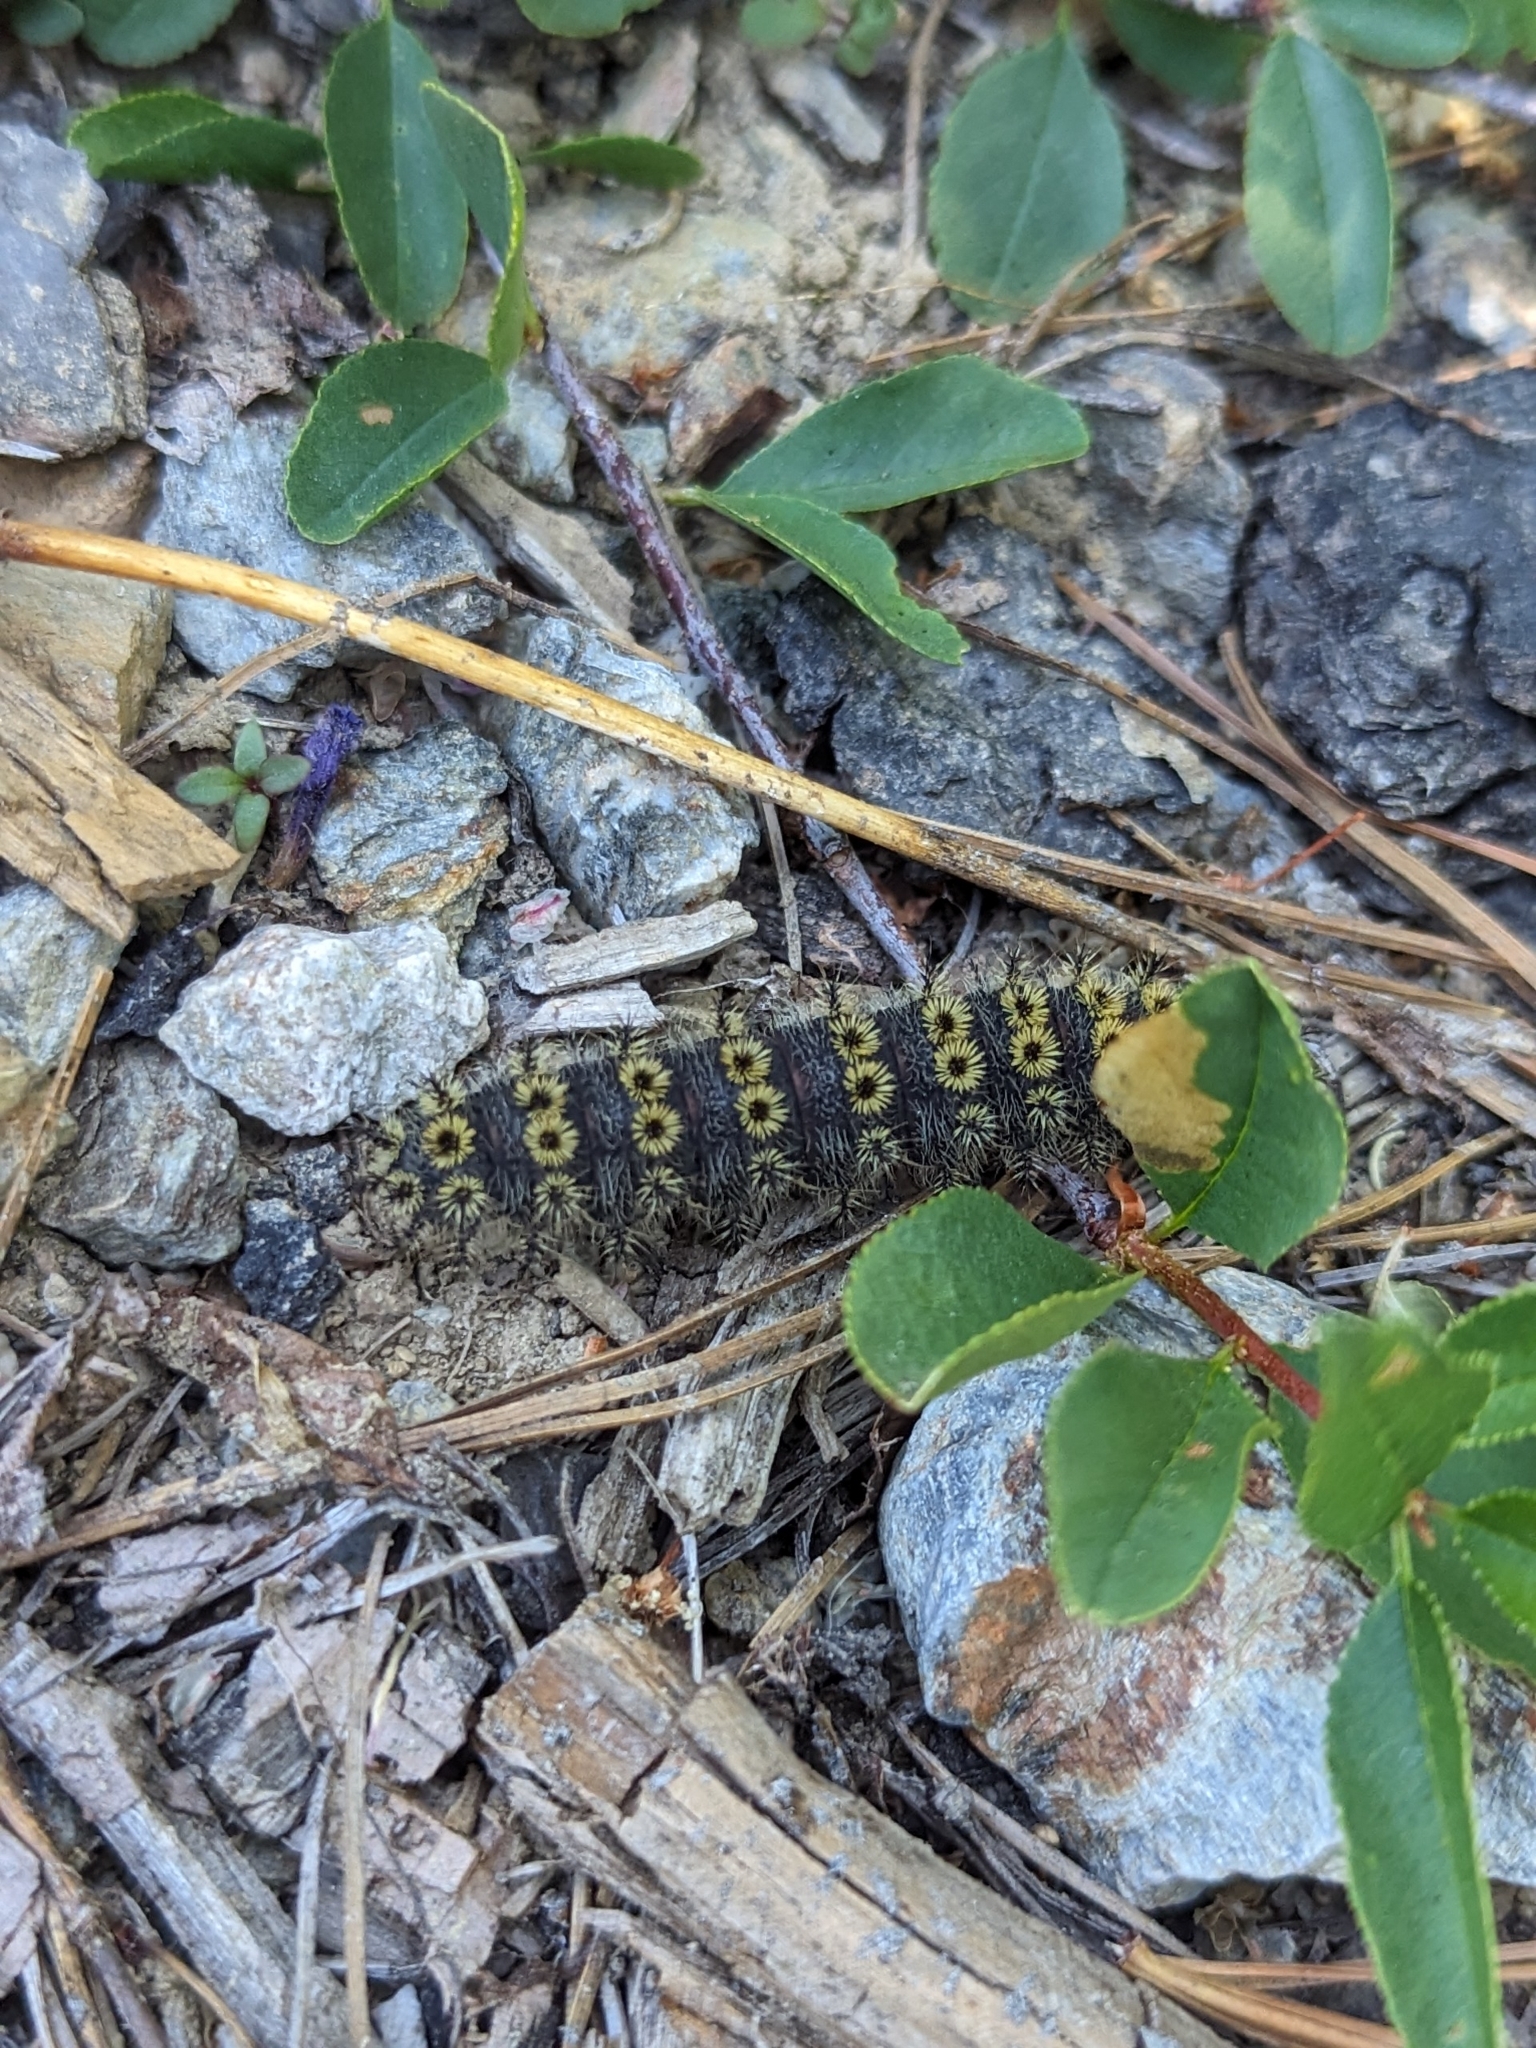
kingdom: Animalia
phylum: Arthropoda
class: Insecta
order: Lepidoptera
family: Saturniidae
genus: Hemileuca
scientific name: Hemileuca eglanterina
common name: Western sheepmoth
